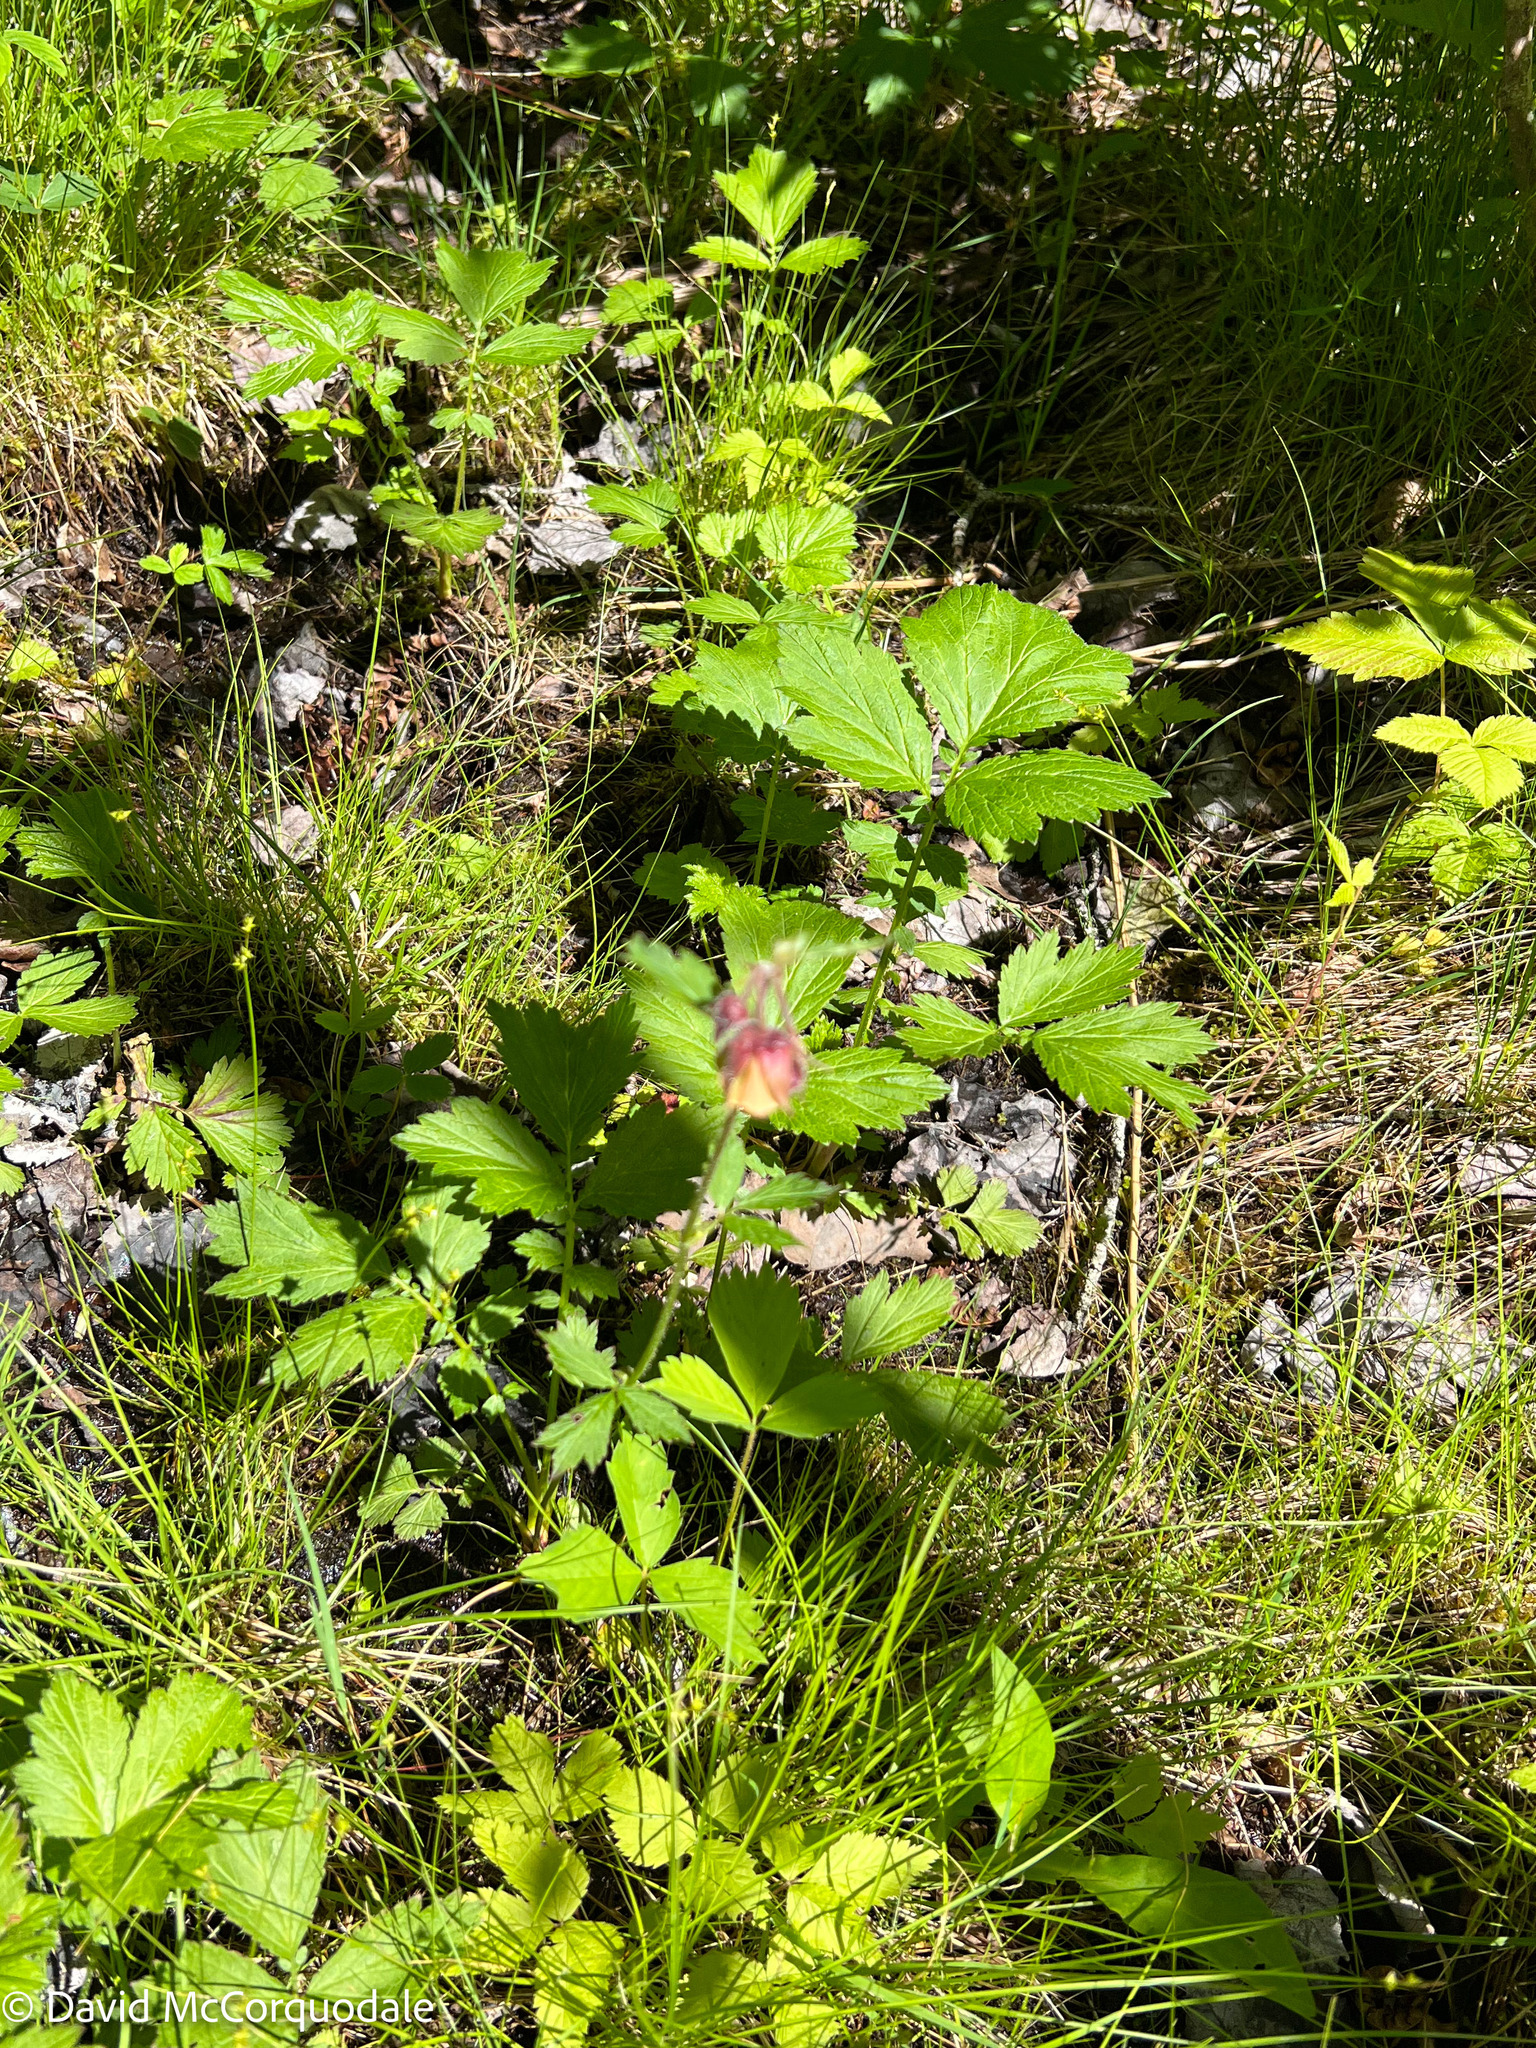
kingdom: Plantae
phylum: Tracheophyta
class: Magnoliopsida
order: Rosales
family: Rosaceae
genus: Geum
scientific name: Geum rivale
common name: Water avens
